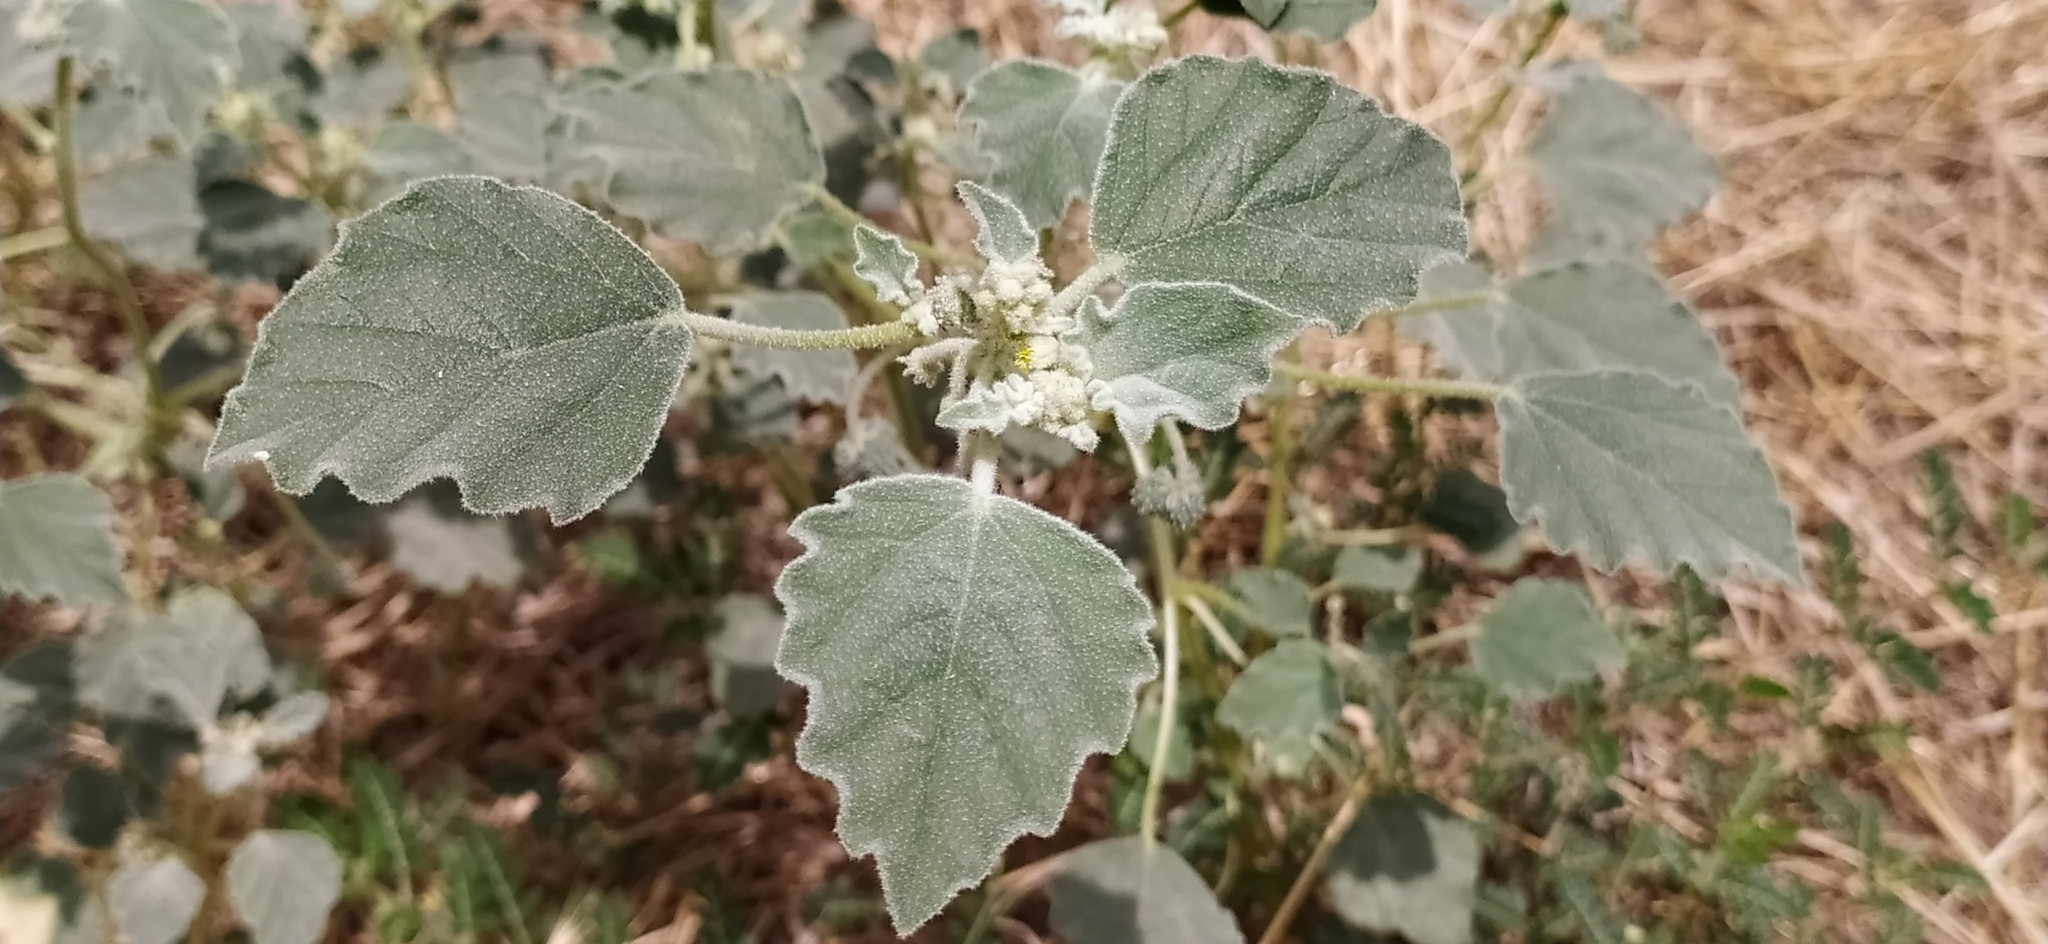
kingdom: Plantae
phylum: Tracheophyta
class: Magnoliopsida
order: Malpighiales
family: Euphorbiaceae
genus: Chrozophora
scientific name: Chrozophora tinctoria
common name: Dyer's litmus
